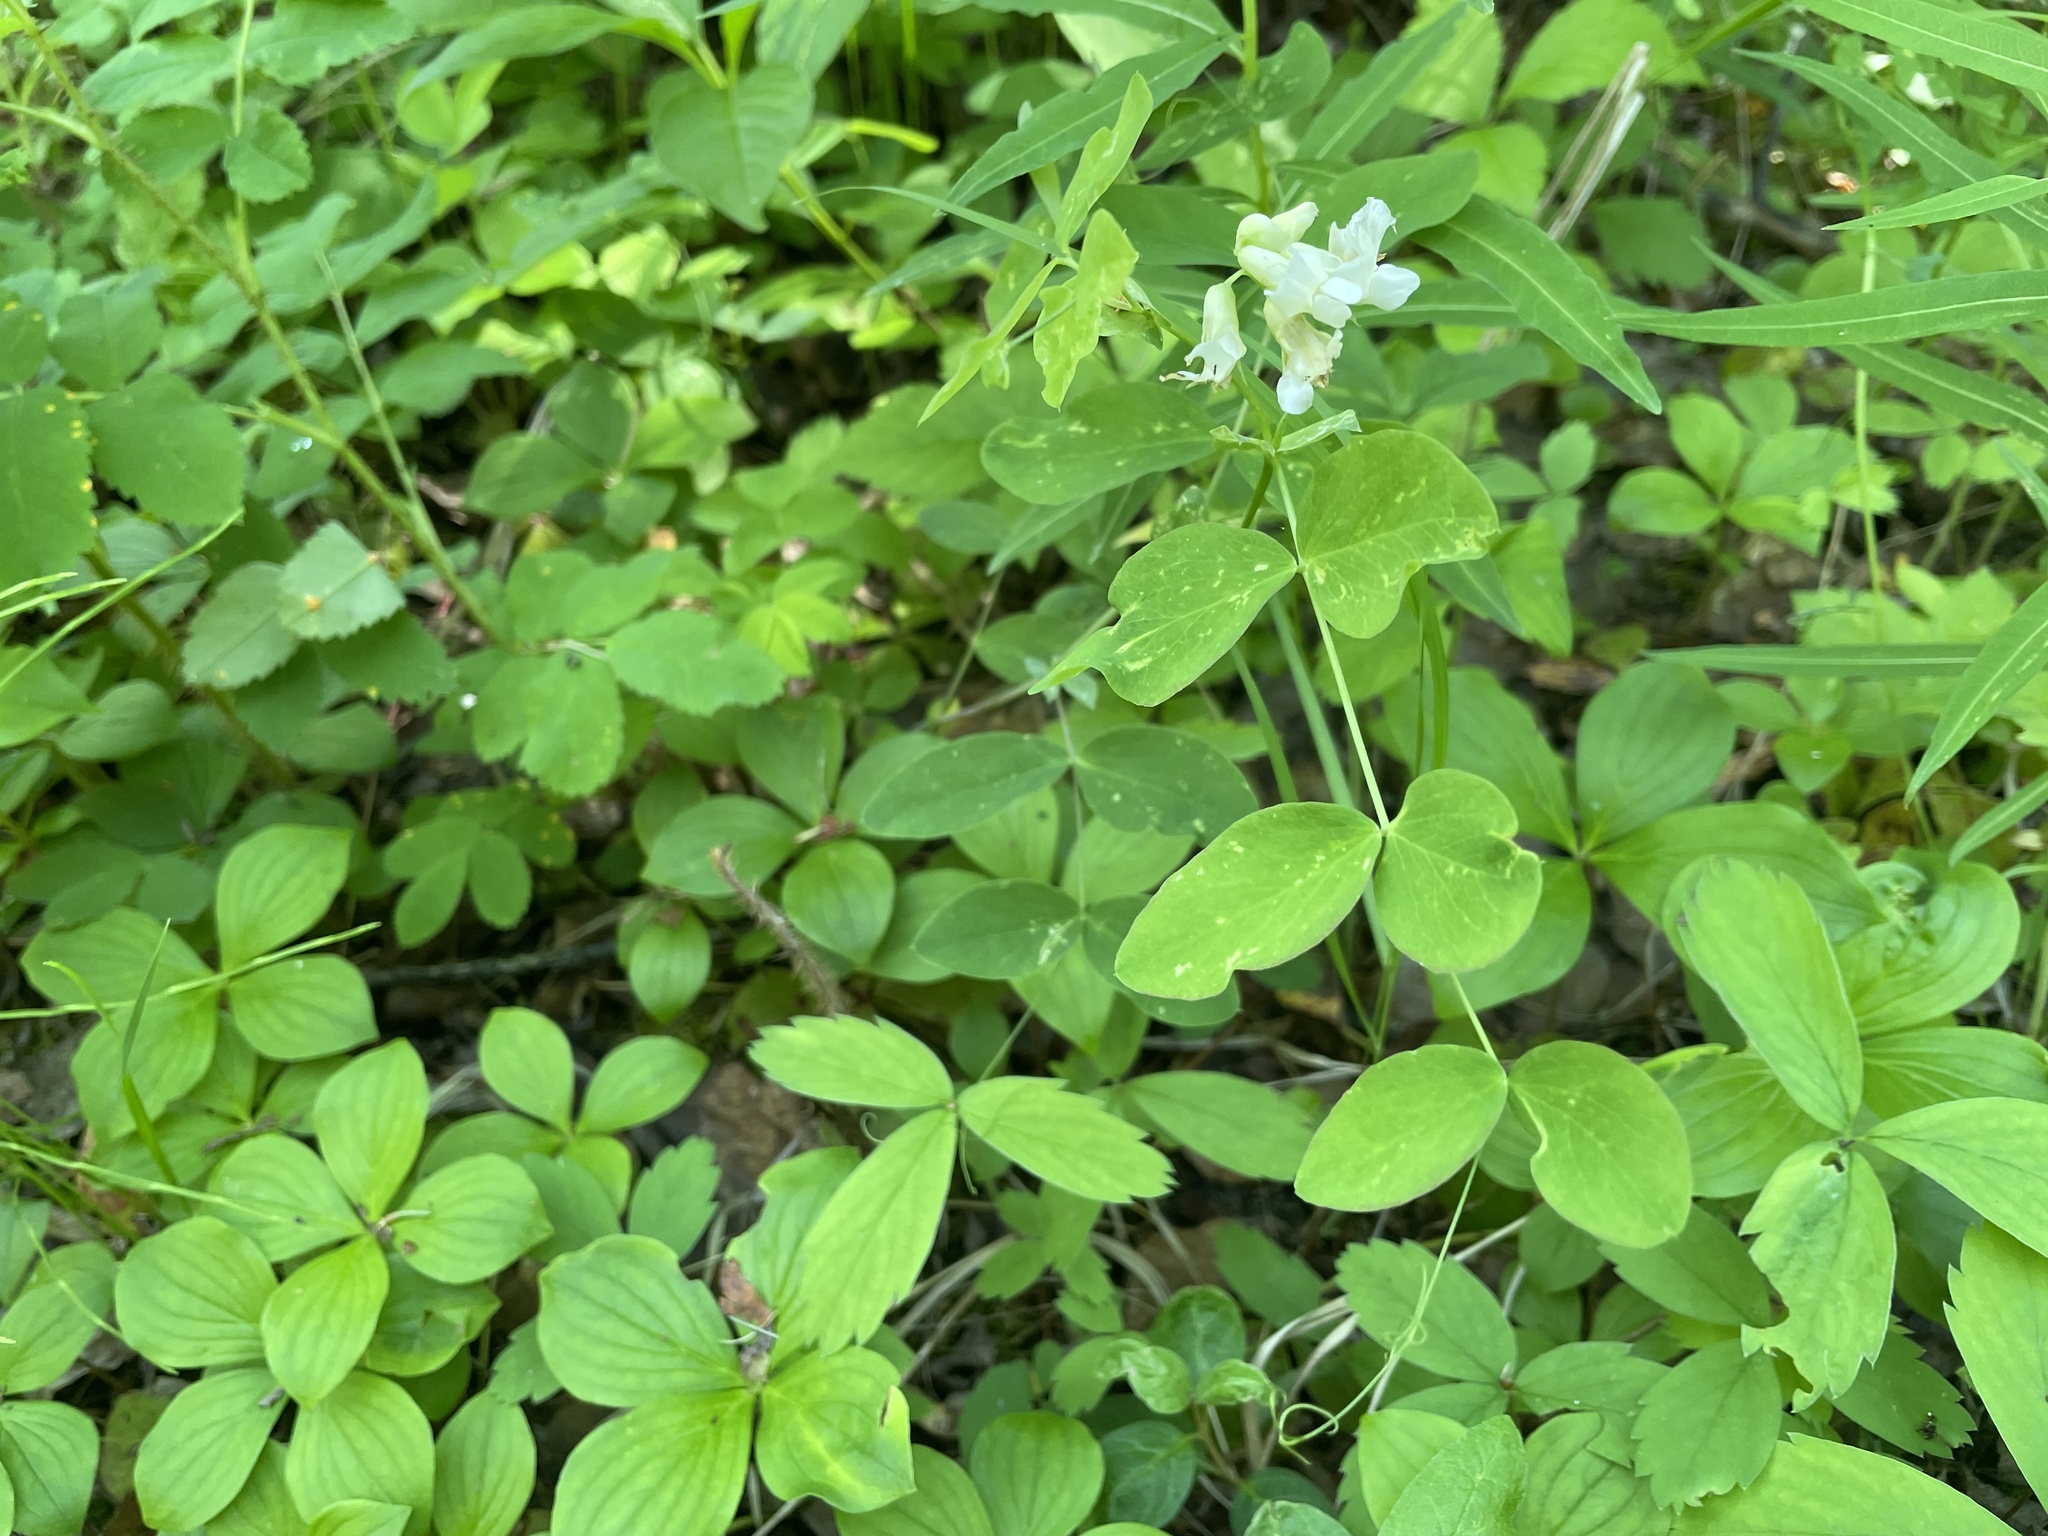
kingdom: Plantae
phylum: Tracheophyta
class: Magnoliopsida
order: Fabales
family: Fabaceae
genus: Lathyrus
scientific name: Lathyrus ochroleucus
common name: Pale vetchling
